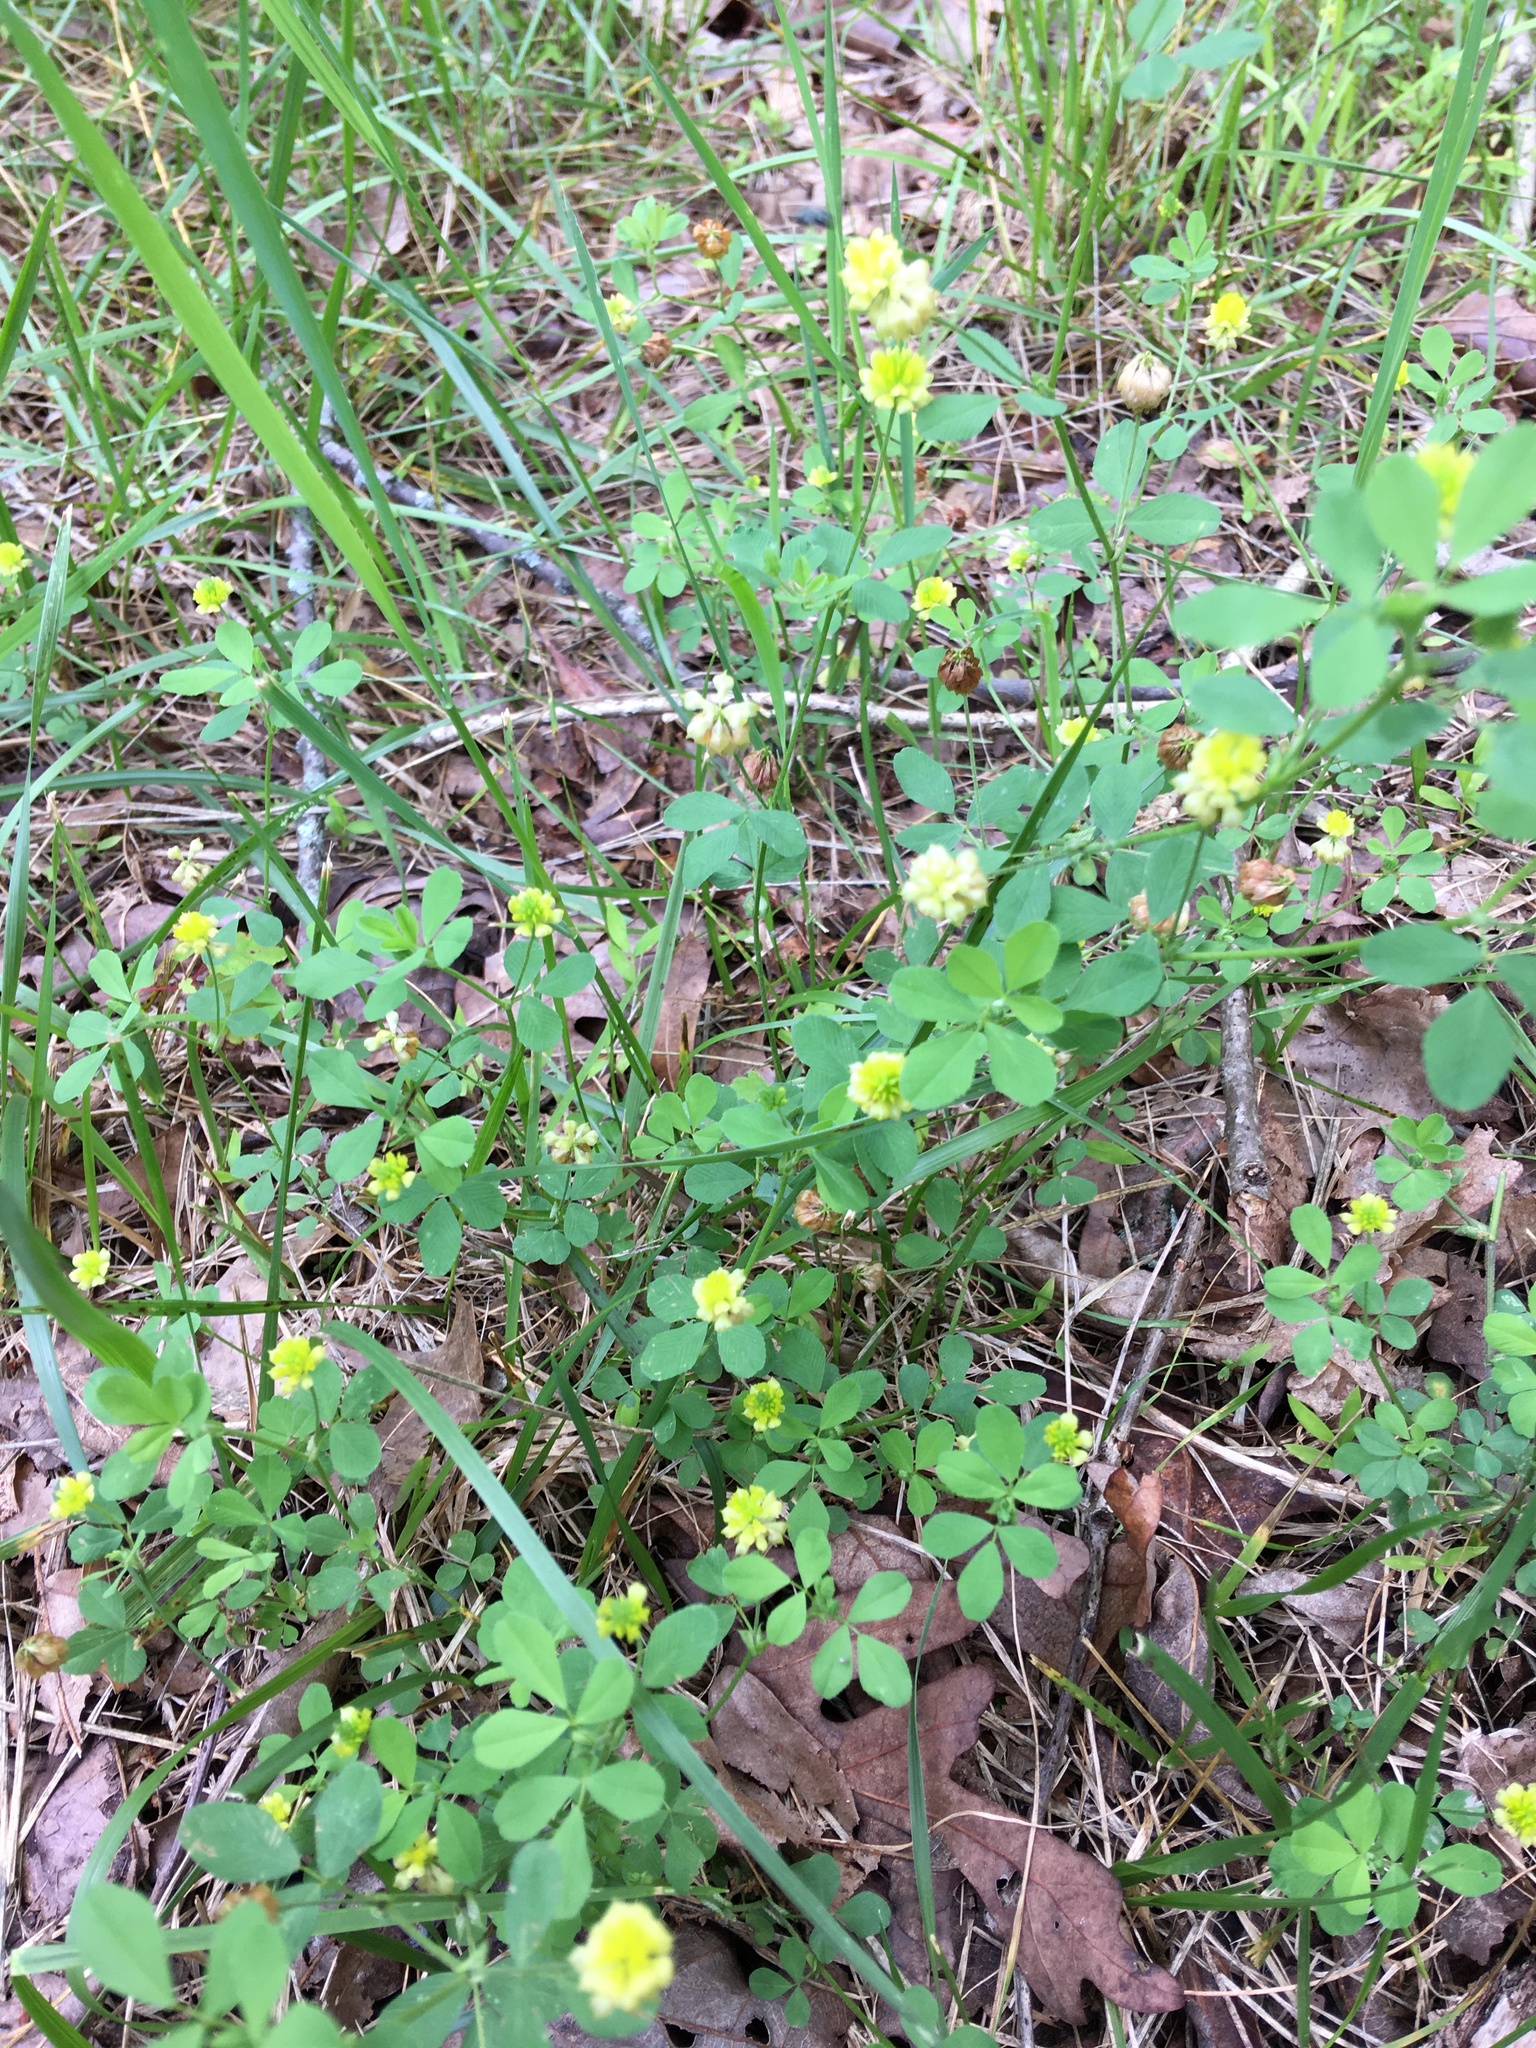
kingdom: Plantae
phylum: Tracheophyta
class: Magnoliopsida
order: Fabales
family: Fabaceae
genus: Trifolium
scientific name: Trifolium campestre
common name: Field clover
